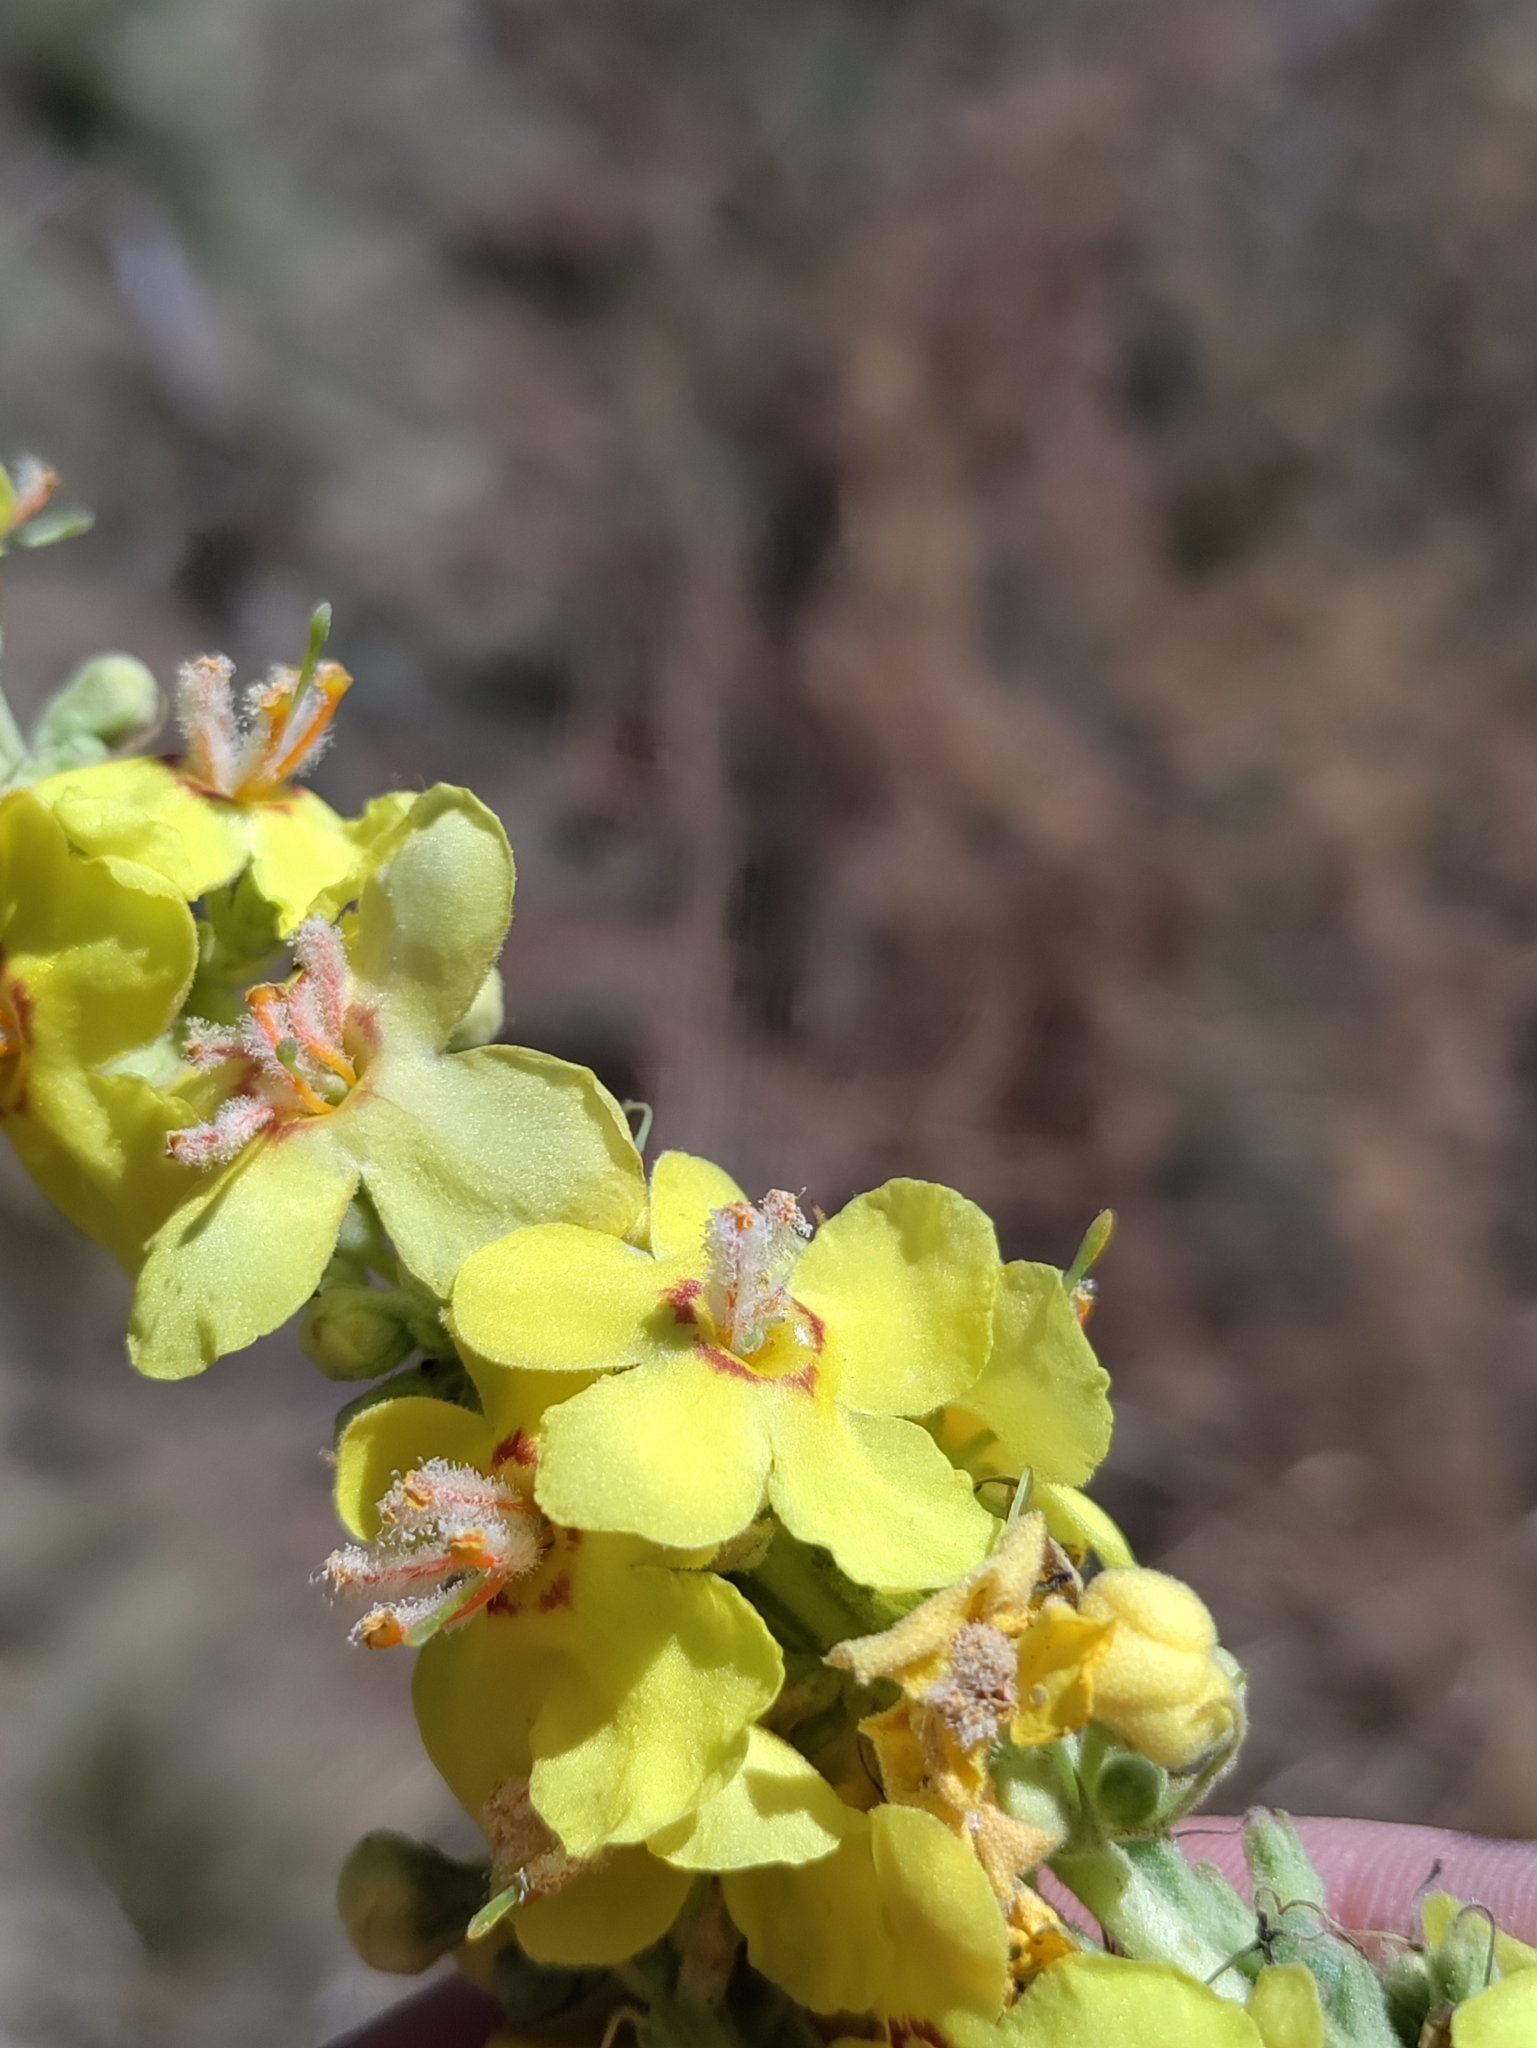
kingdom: Plantae
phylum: Tracheophyta
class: Magnoliopsida
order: Lamiales
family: Scrophulariaceae
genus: Verbascum
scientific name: Verbascum speciosum
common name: Hungarian mullein
